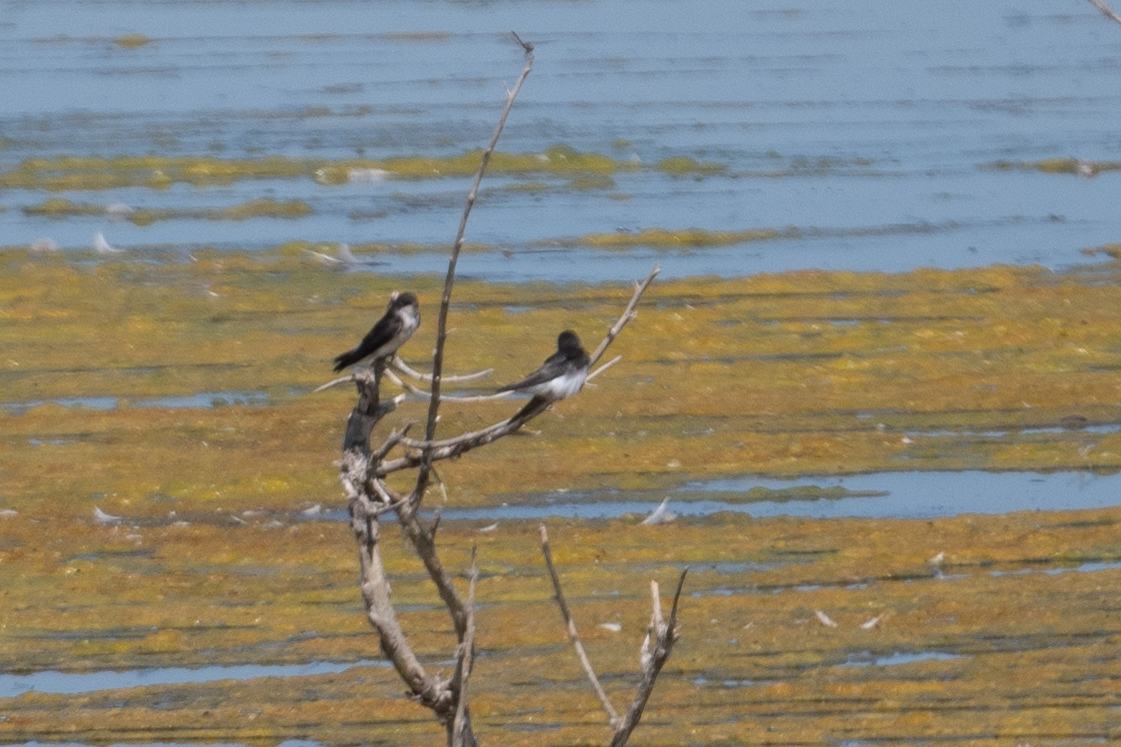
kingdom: Animalia
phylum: Chordata
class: Aves
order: Passeriformes
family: Hirundinidae
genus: Tachycineta
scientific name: Tachycineta bicolor
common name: Tree swallow
